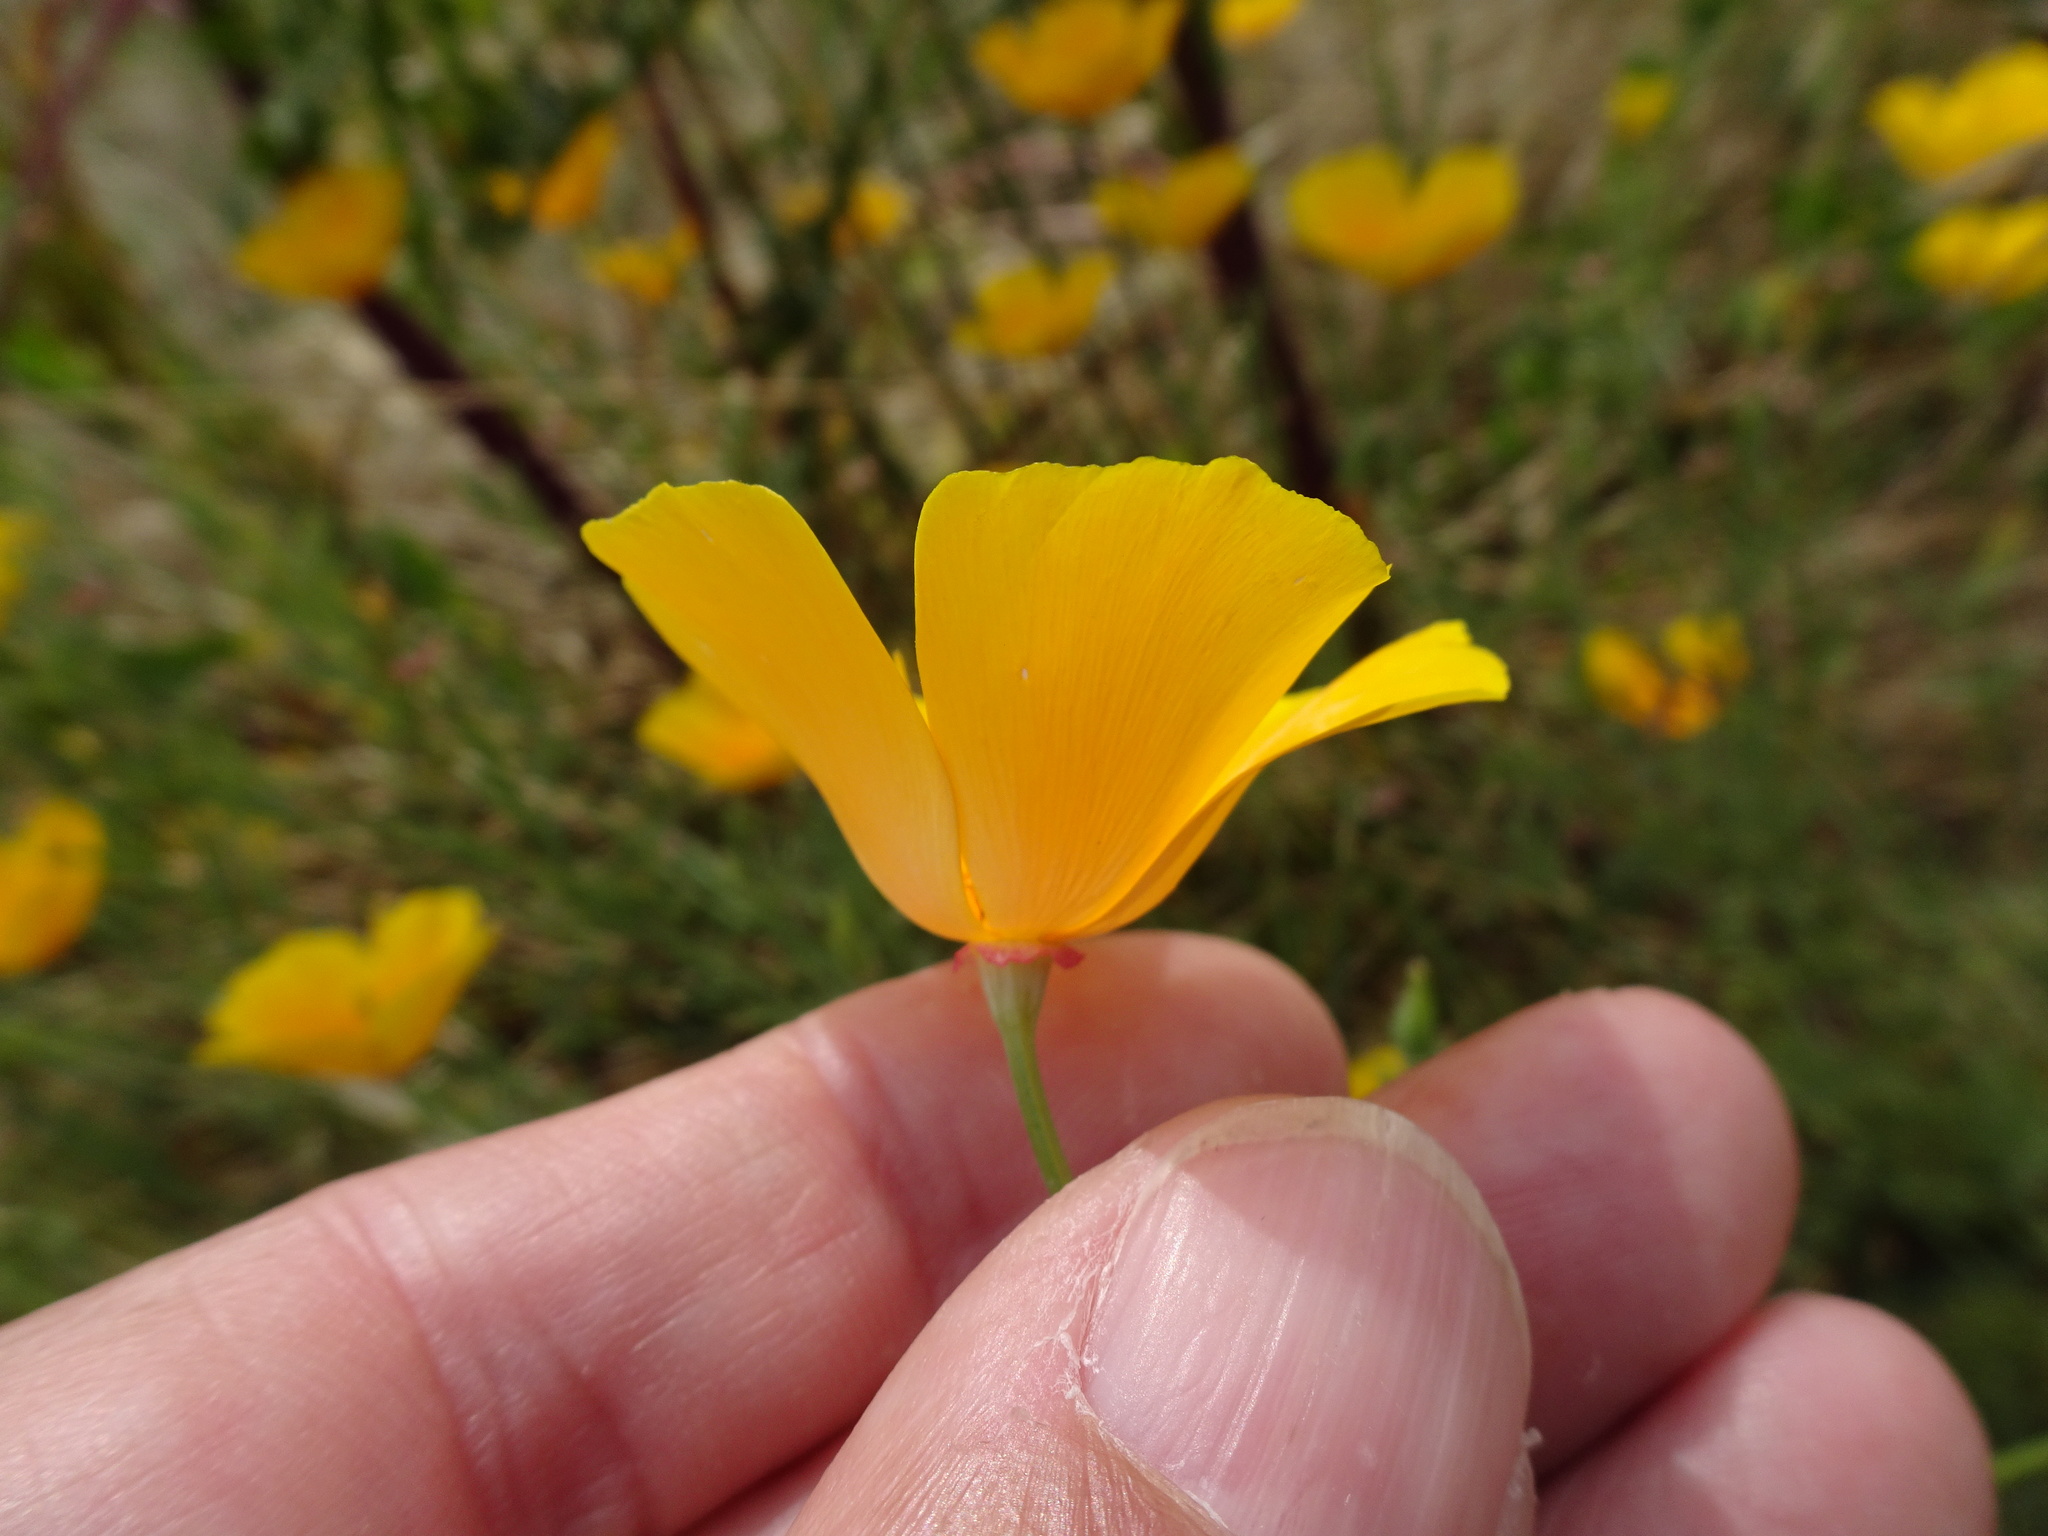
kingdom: Plantae
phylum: Tracheophyta
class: Magnoliopsida
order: Ranunculales
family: Papaveraceae
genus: Eschscholzia
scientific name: Eschscholzia californica
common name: California poppy
